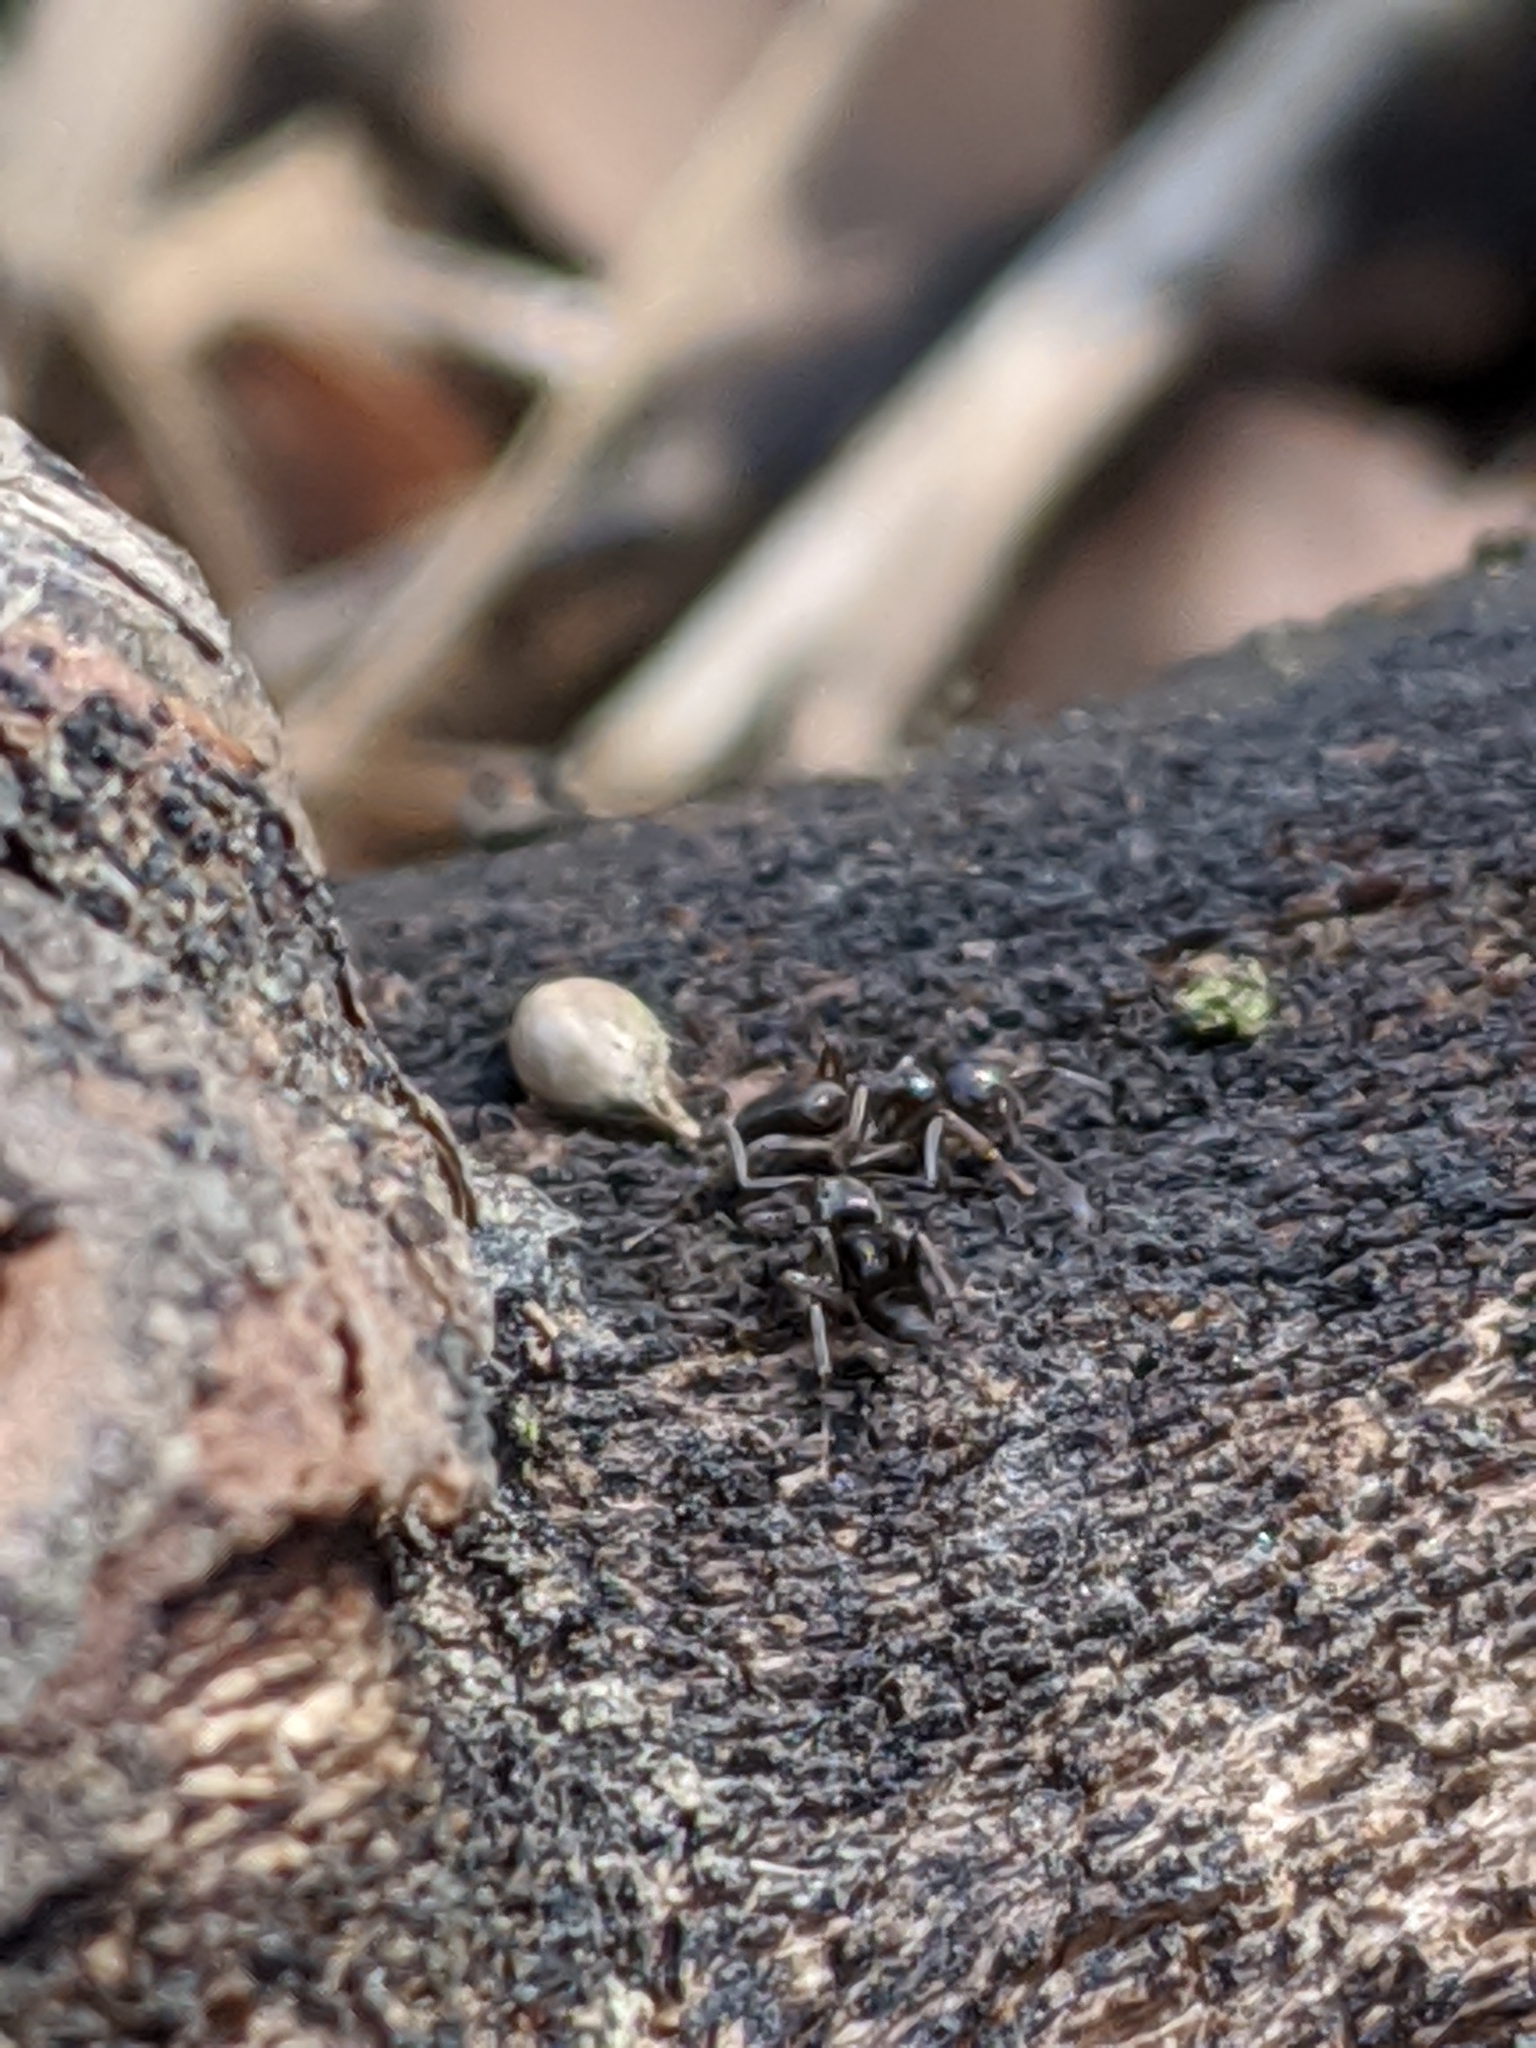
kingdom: Animalia
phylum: Arthropoda
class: Insecta
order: Hymenoptera
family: Formicidae
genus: Tapinoma
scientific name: Tapinoma sessile
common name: Odorous house ant
